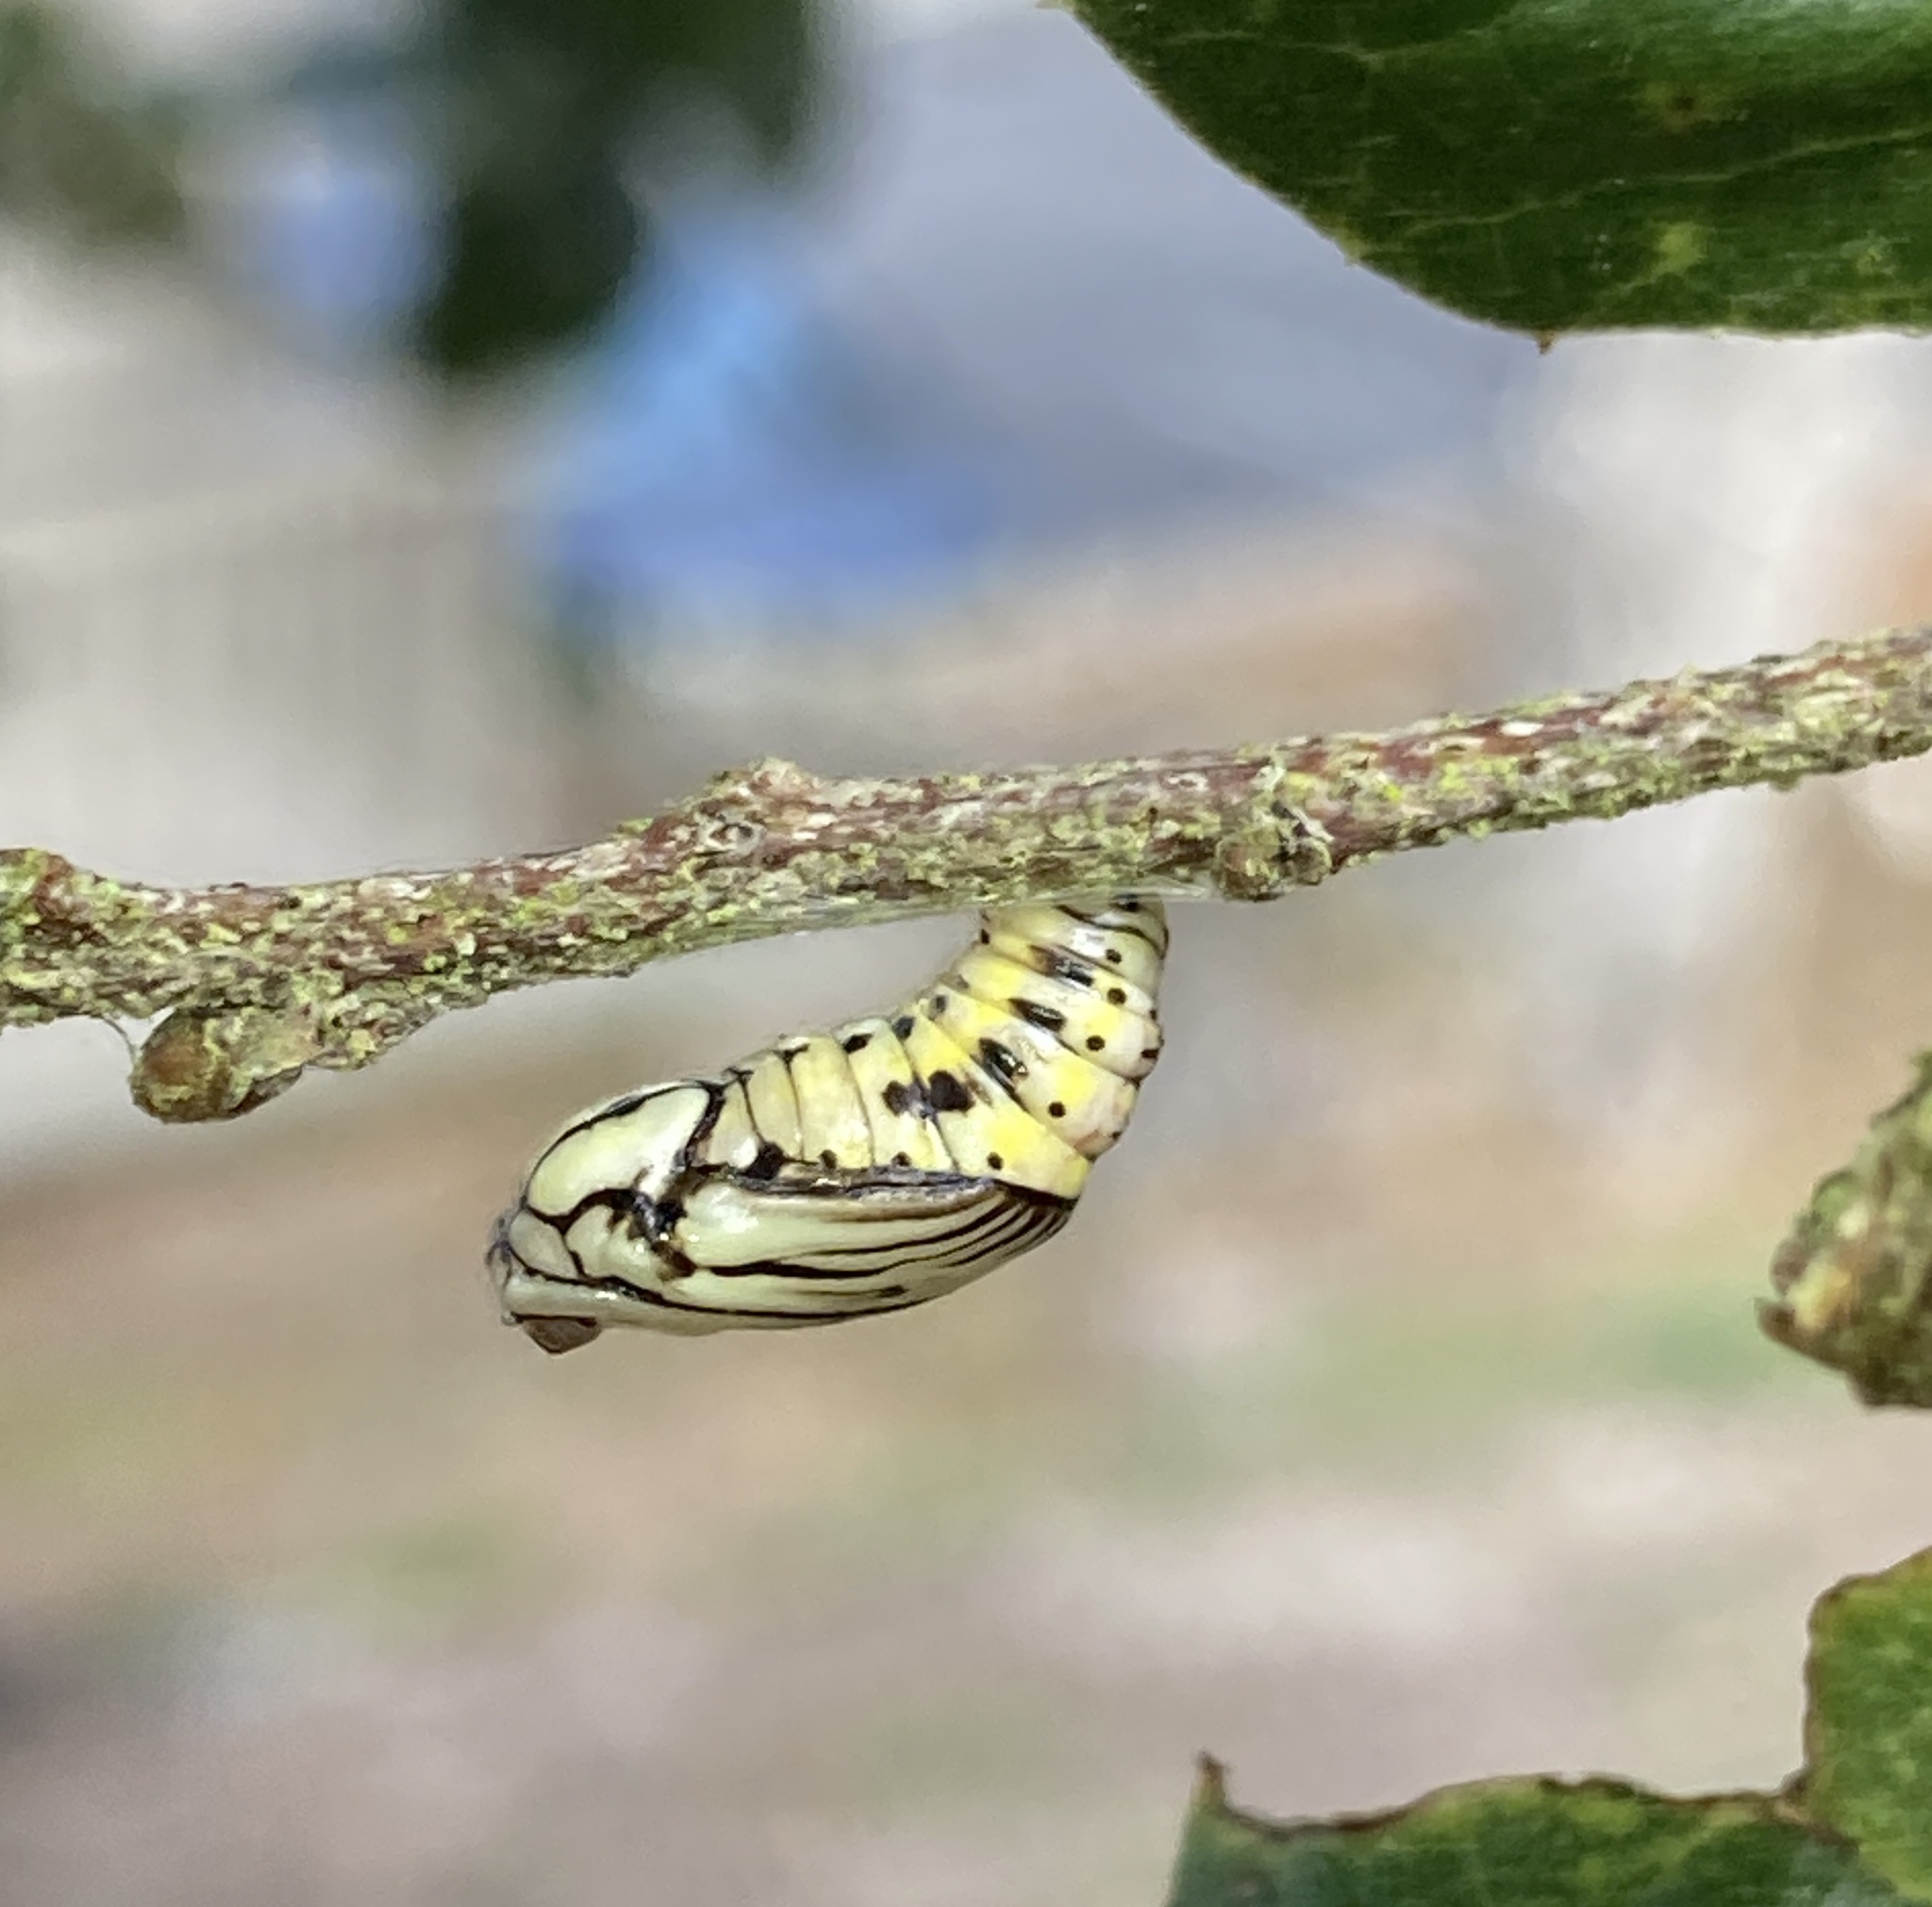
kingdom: Animalia
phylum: Arthropoda
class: Insecta
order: Lepidoptera
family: Notodontidae
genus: Phryganidia
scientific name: Phryganidia californica
